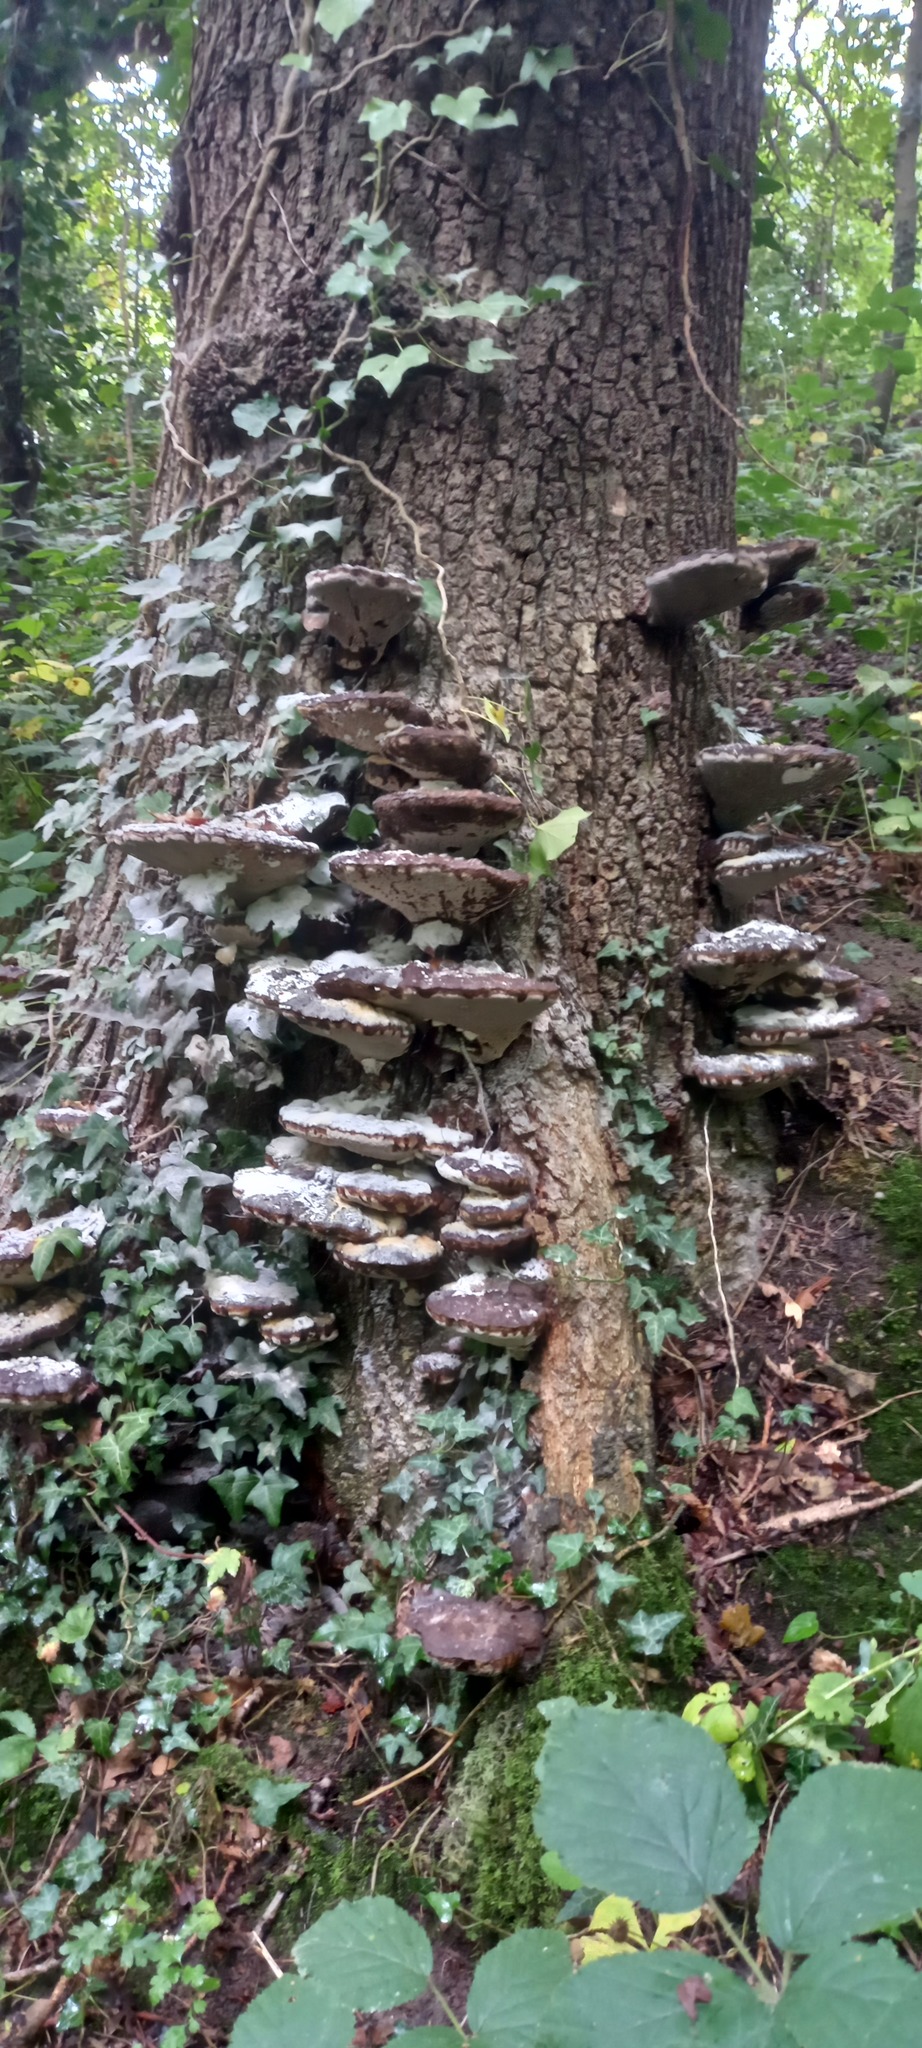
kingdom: Fungi
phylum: Basidiomycota
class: Agaricomycetes
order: Polyporales
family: Polyporaceae
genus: Ganoderma
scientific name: Ganoderma applanatum
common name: Artist's bracket
